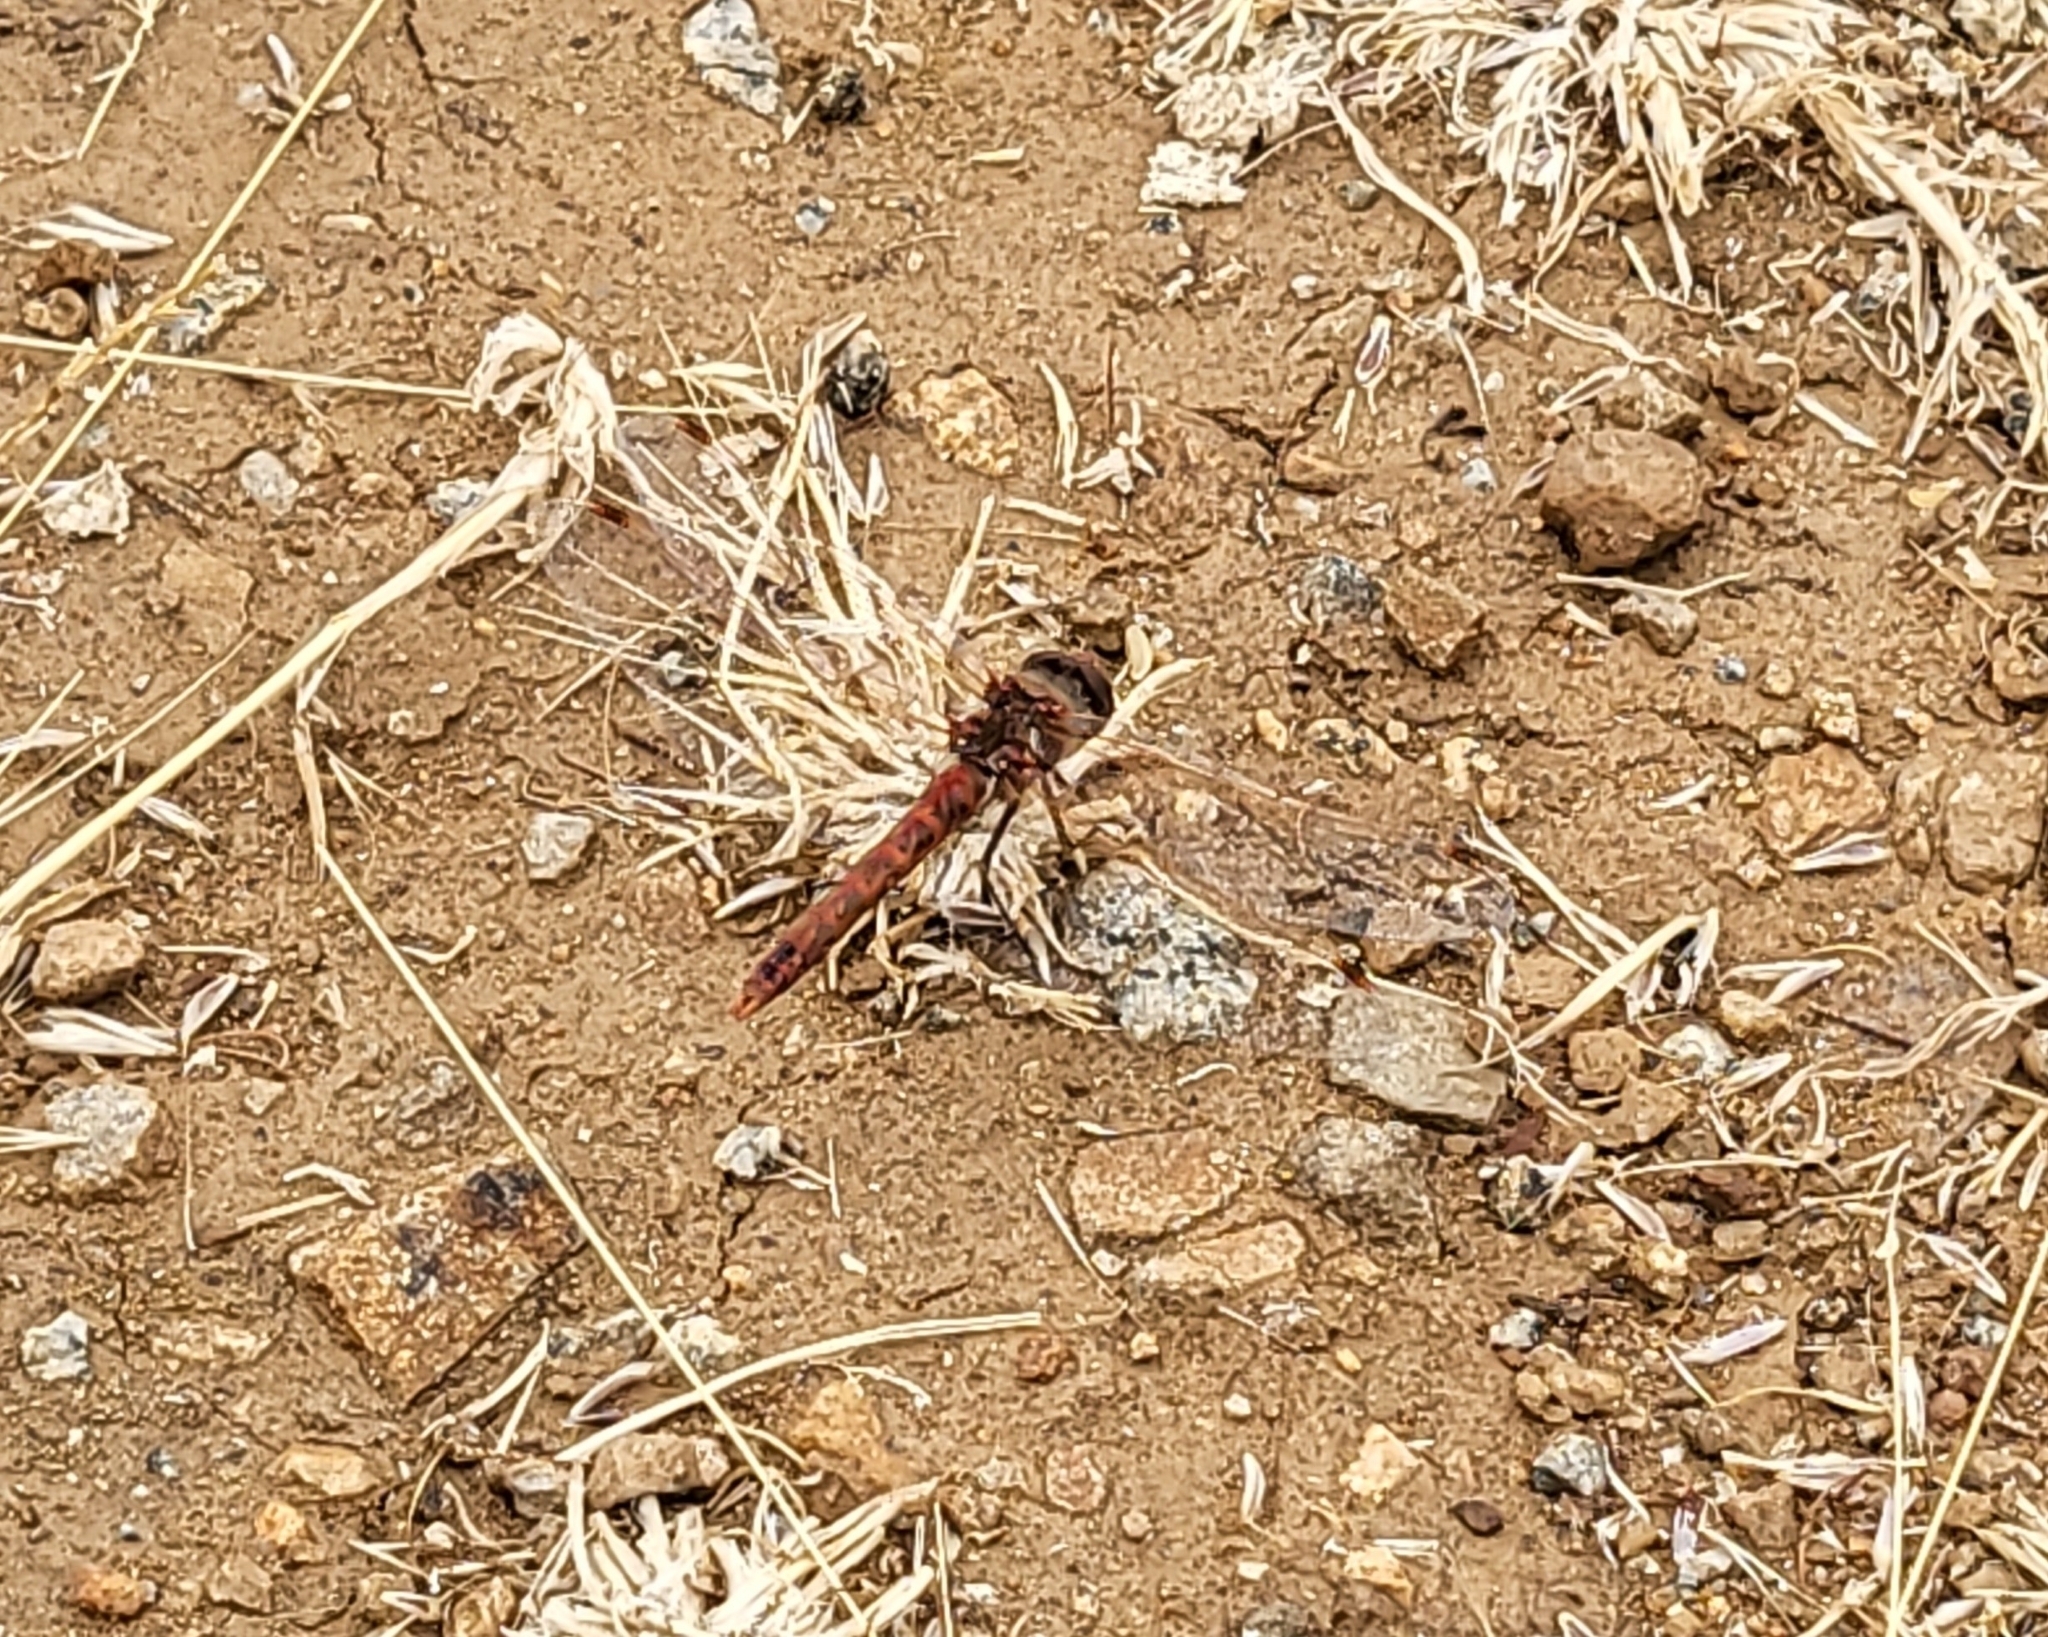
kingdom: Animalia
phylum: Arthropoda
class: Insecta
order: Odonata
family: Libellulidae
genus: Sympetrum
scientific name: Sympetrum corruptum
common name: Variegated meadowhawk
